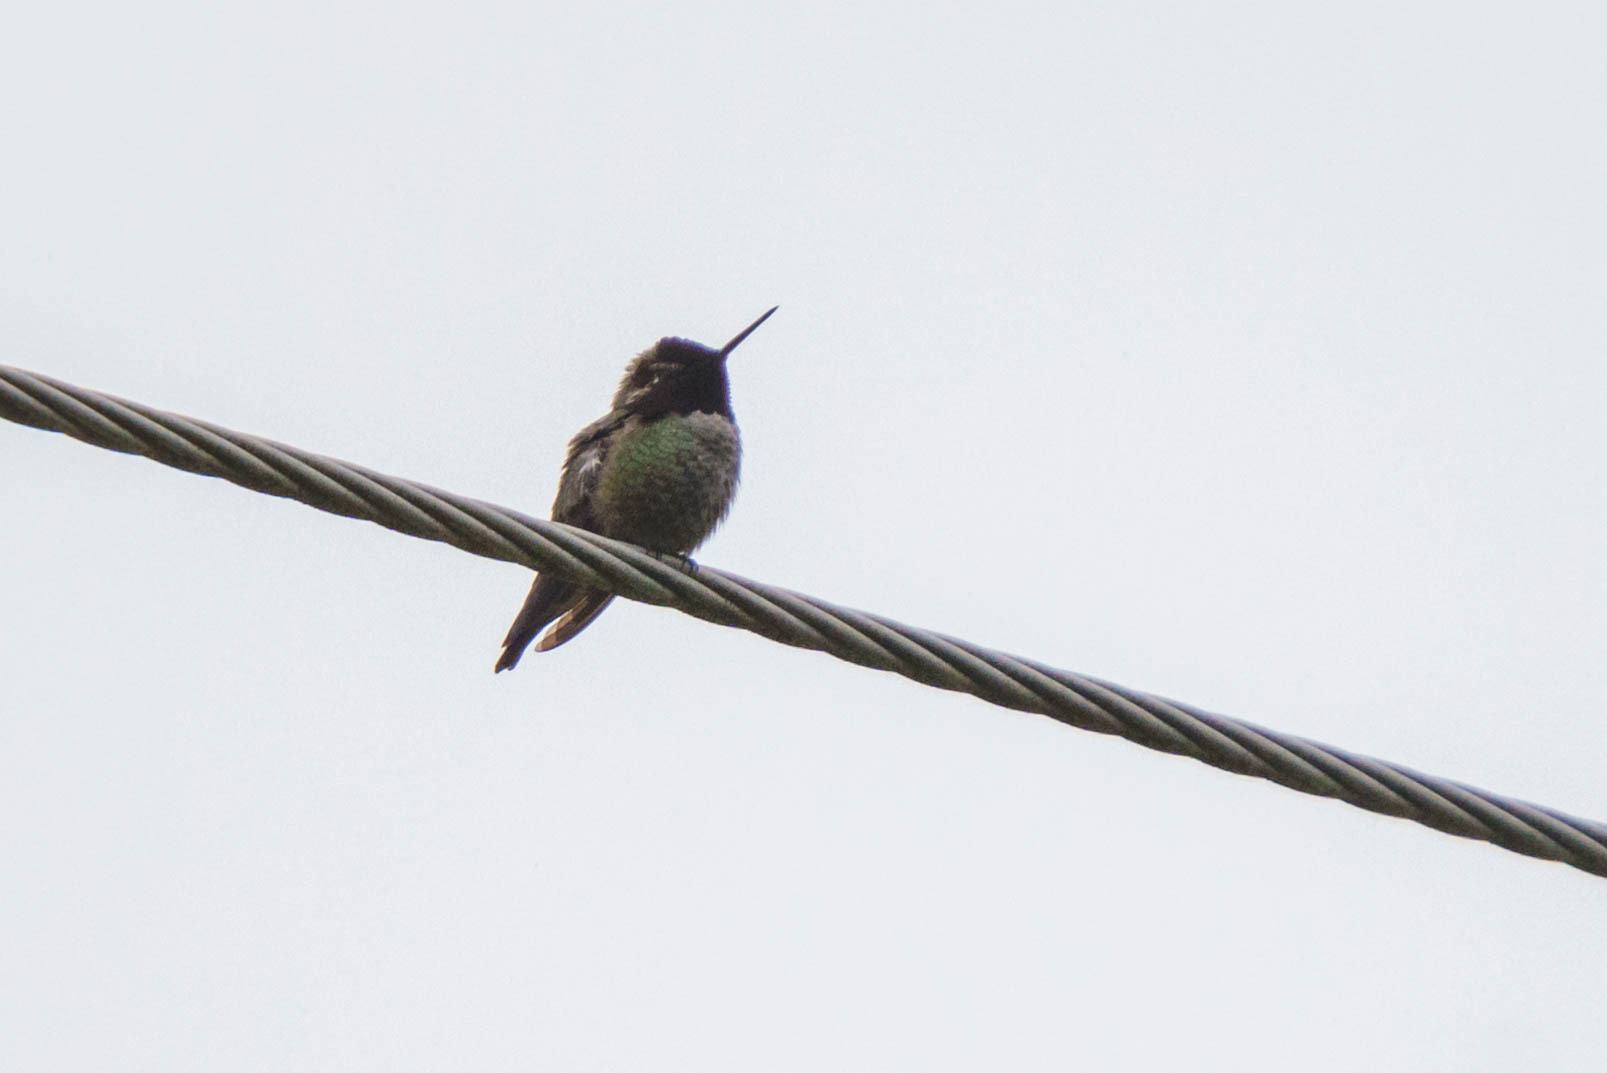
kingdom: Animalia
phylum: Chordata
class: Aves
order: Apodiformes
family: Trochilidae
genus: Calypte
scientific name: Calypte anna
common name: Anna's hummingbird
